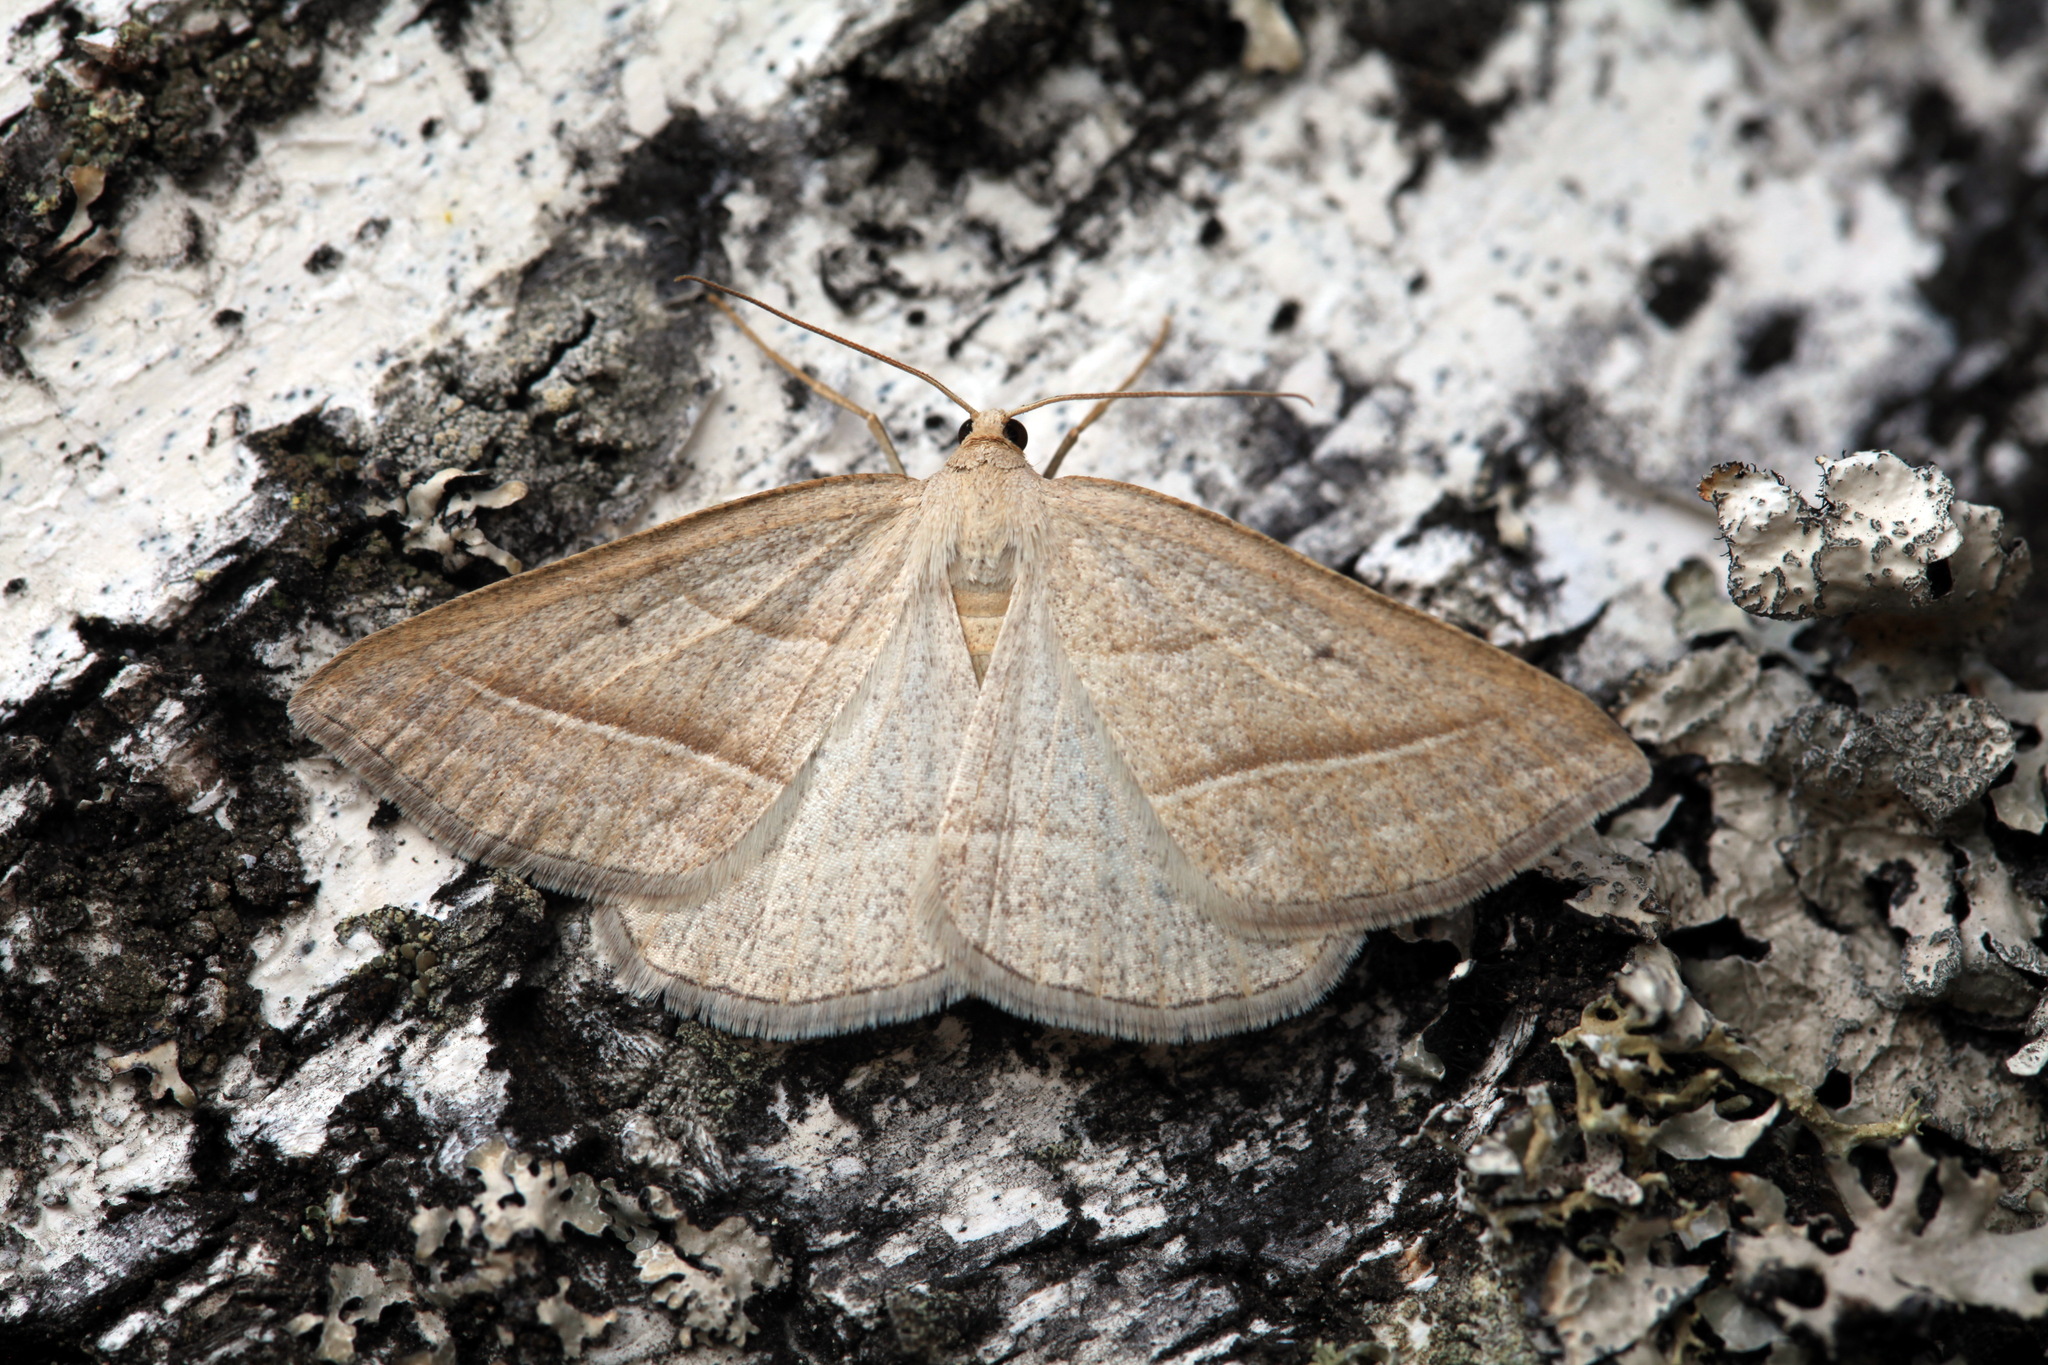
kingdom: Animalia
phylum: Arthropoda
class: Insecta
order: Lepidoptera
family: Pterophoridae
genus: Pterophorus
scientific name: Pterophorus Petrophora chlorosata
